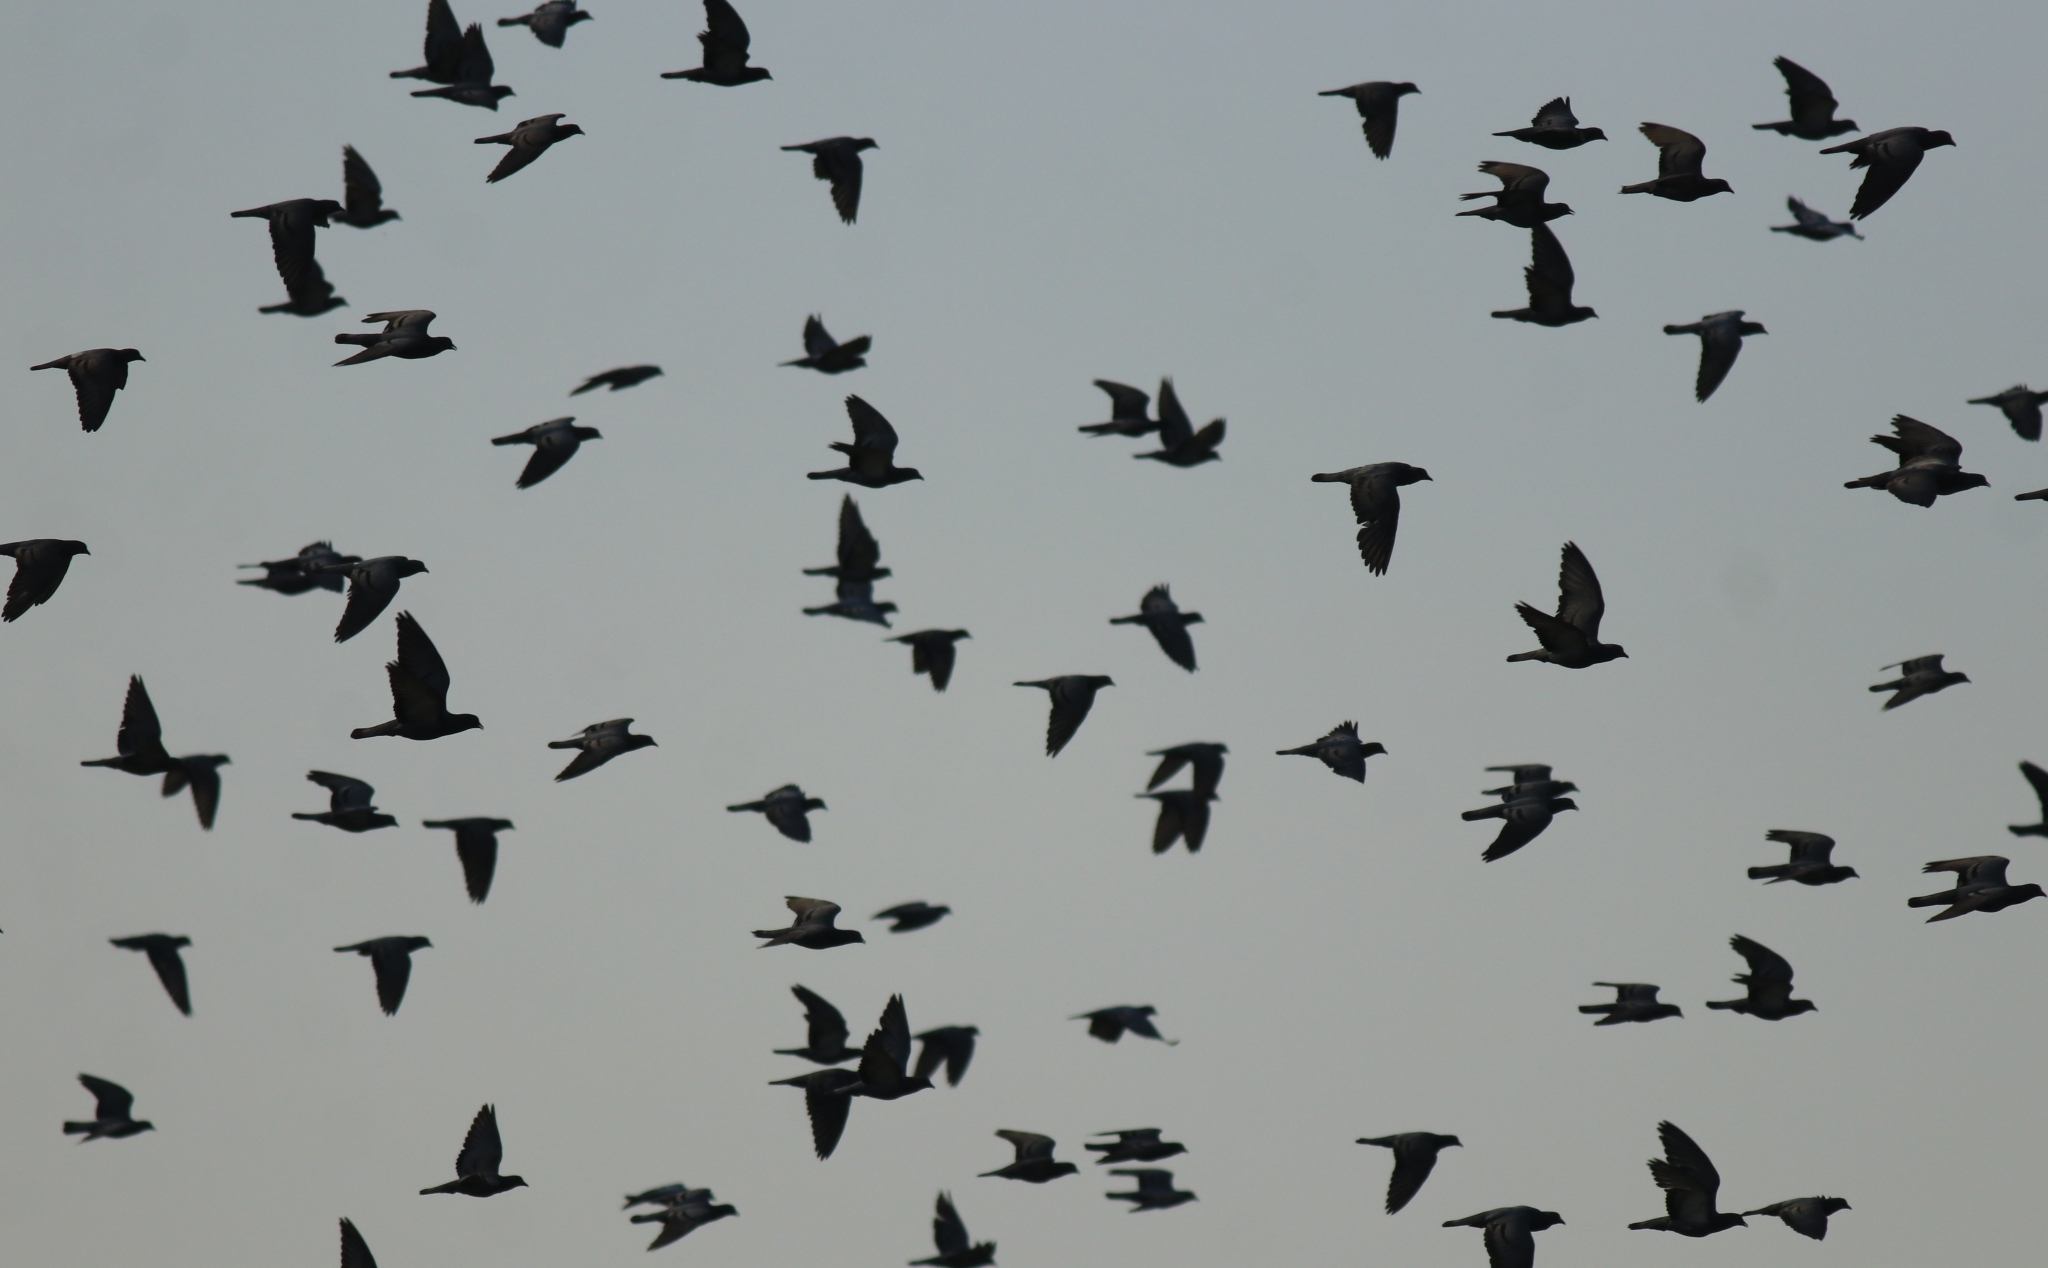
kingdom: Animalia
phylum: Chordata
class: Aves
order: Columbiformes
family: Columbidae
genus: Columba
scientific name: Columba livia
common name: Rock pigeon
